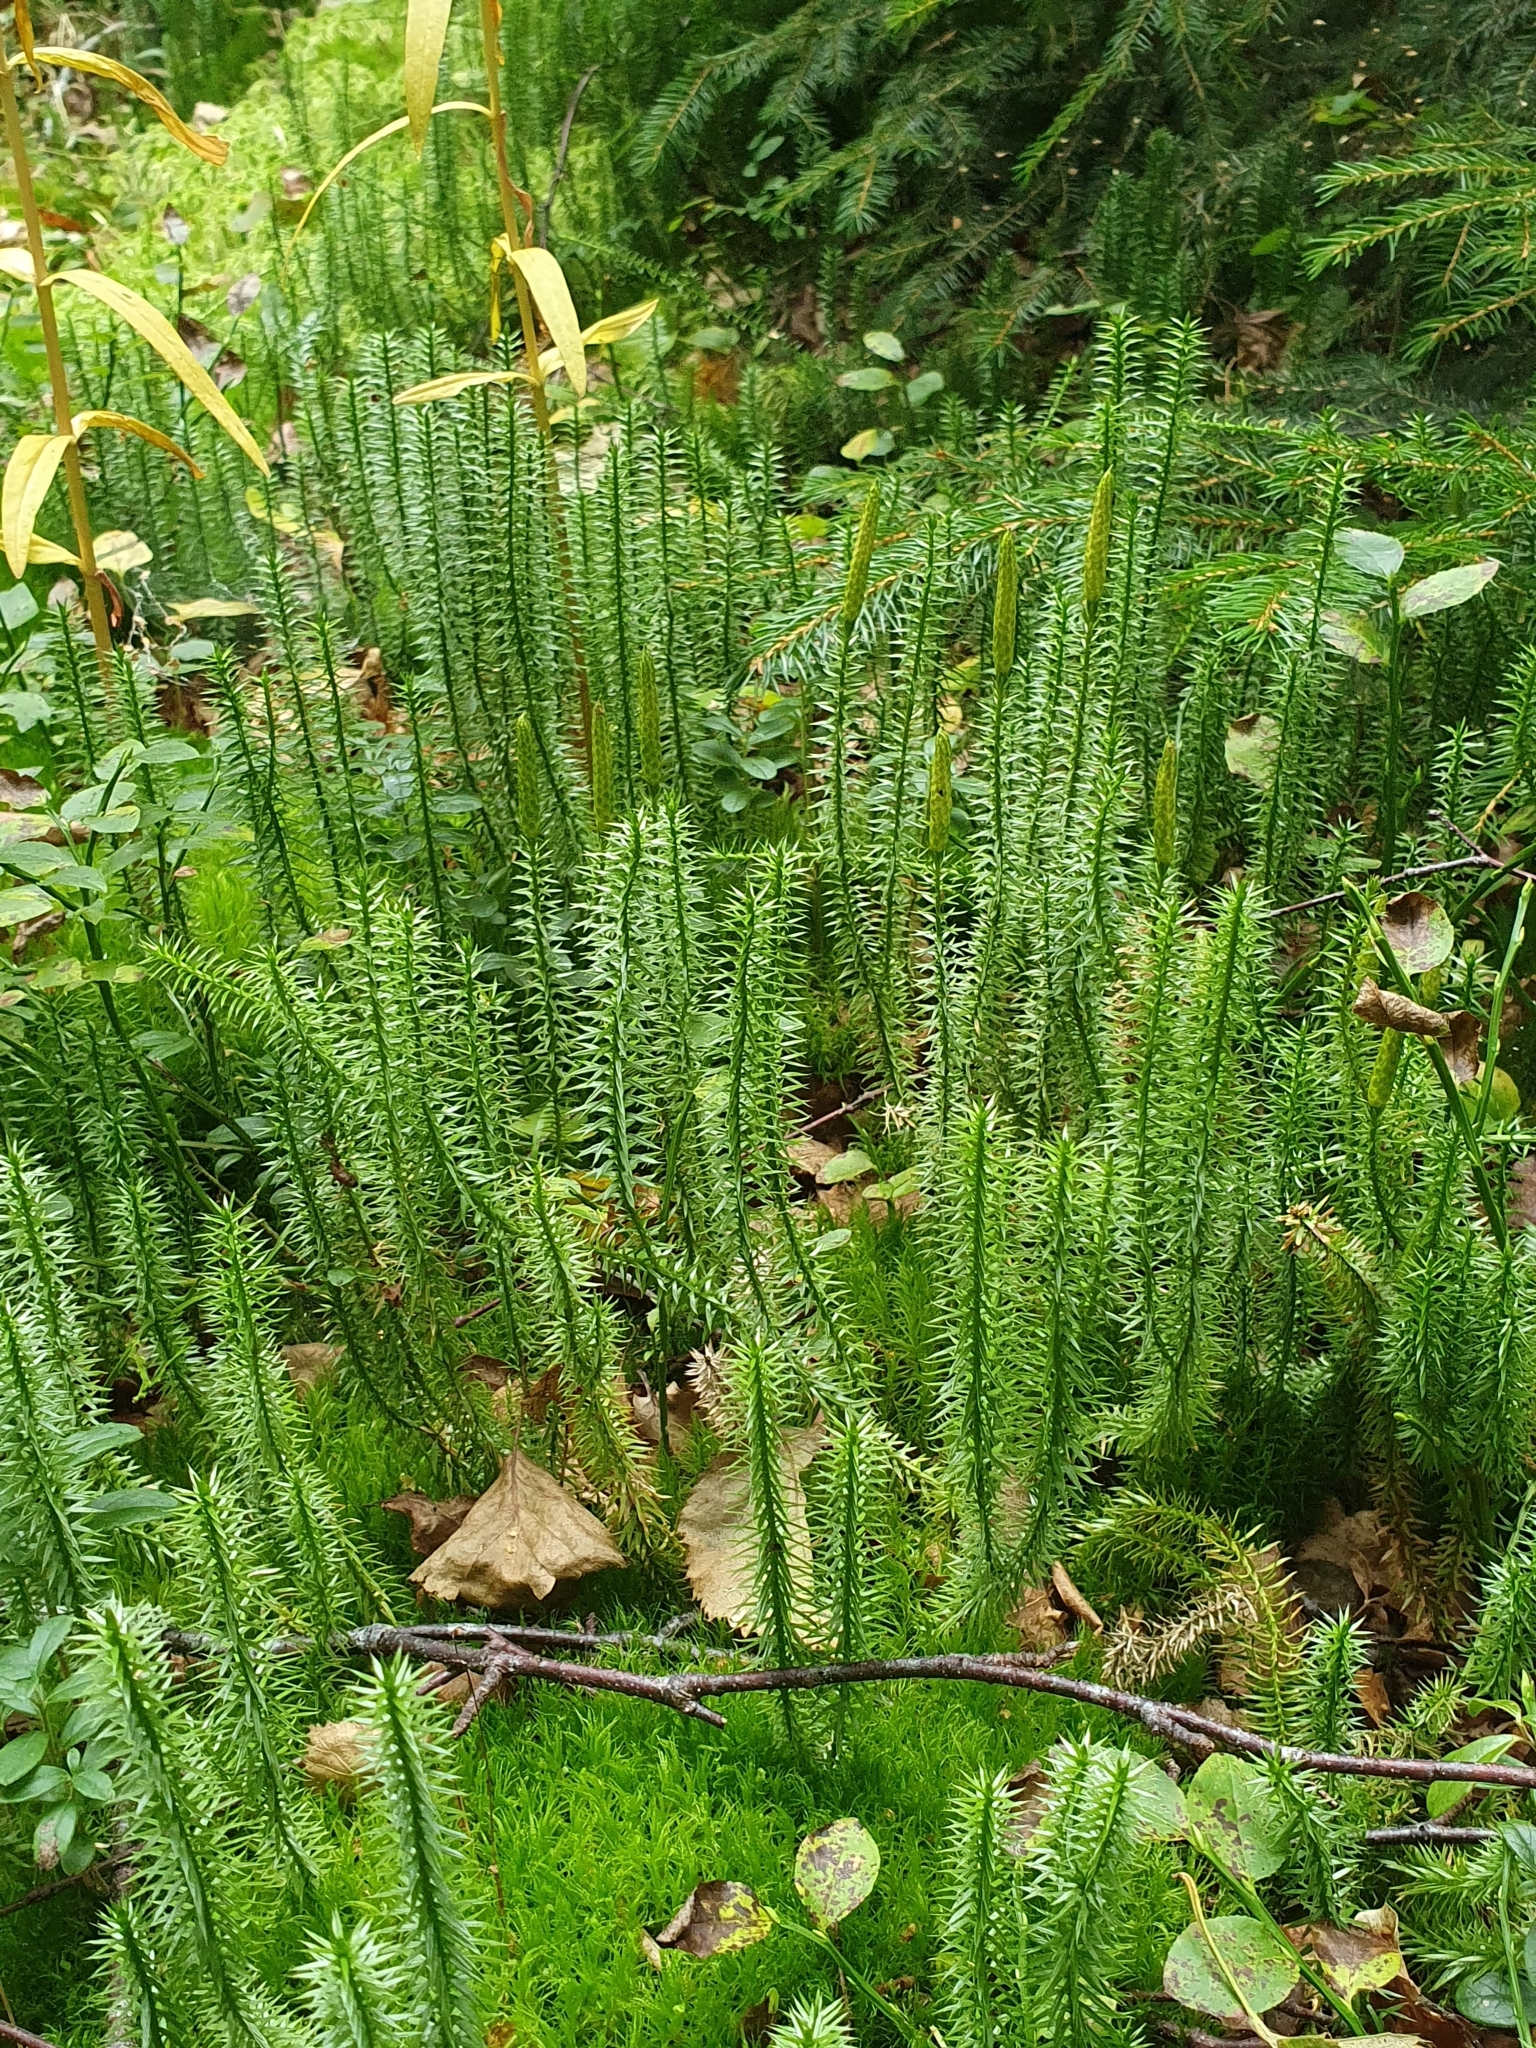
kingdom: Plantae
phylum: Tracheophyta
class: Lycopodiopsida
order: Lycopodiales
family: Lycopodiaceae
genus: Spinulum
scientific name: Spinulum annotinum
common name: Interrupted club-moss
